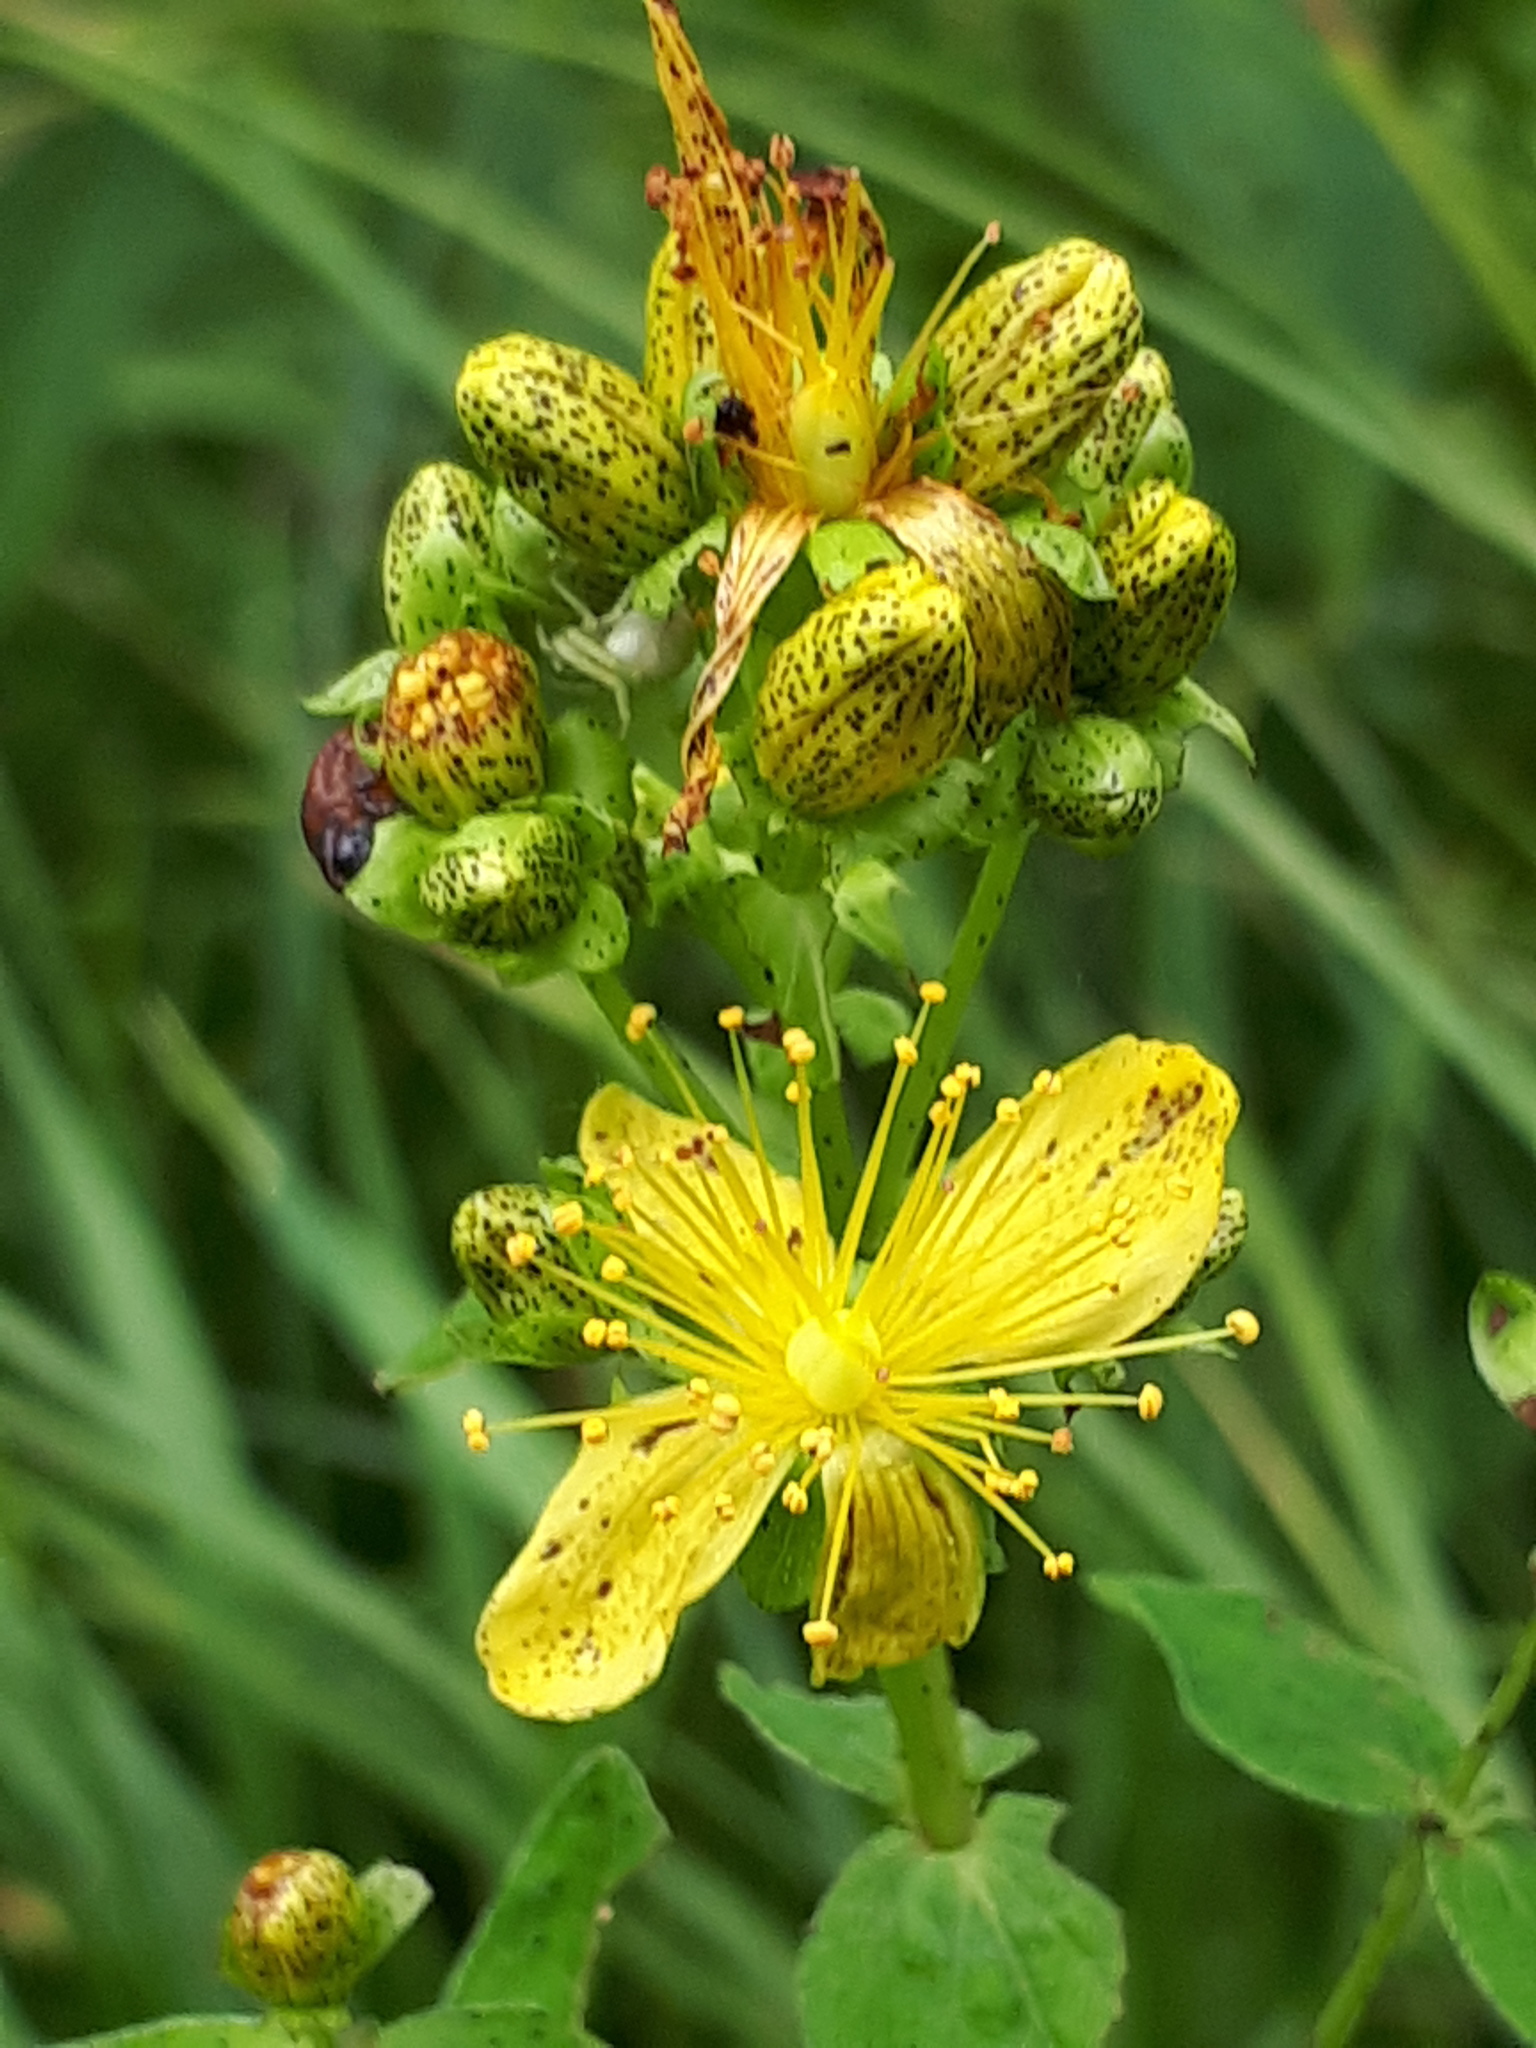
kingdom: Plantae
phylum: Tracheophyta
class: Magnoliopsida
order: Malpighiales
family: Hypericaceae
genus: Hypericum
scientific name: Hypericum maculatum
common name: Imperforate st. john's-wort
